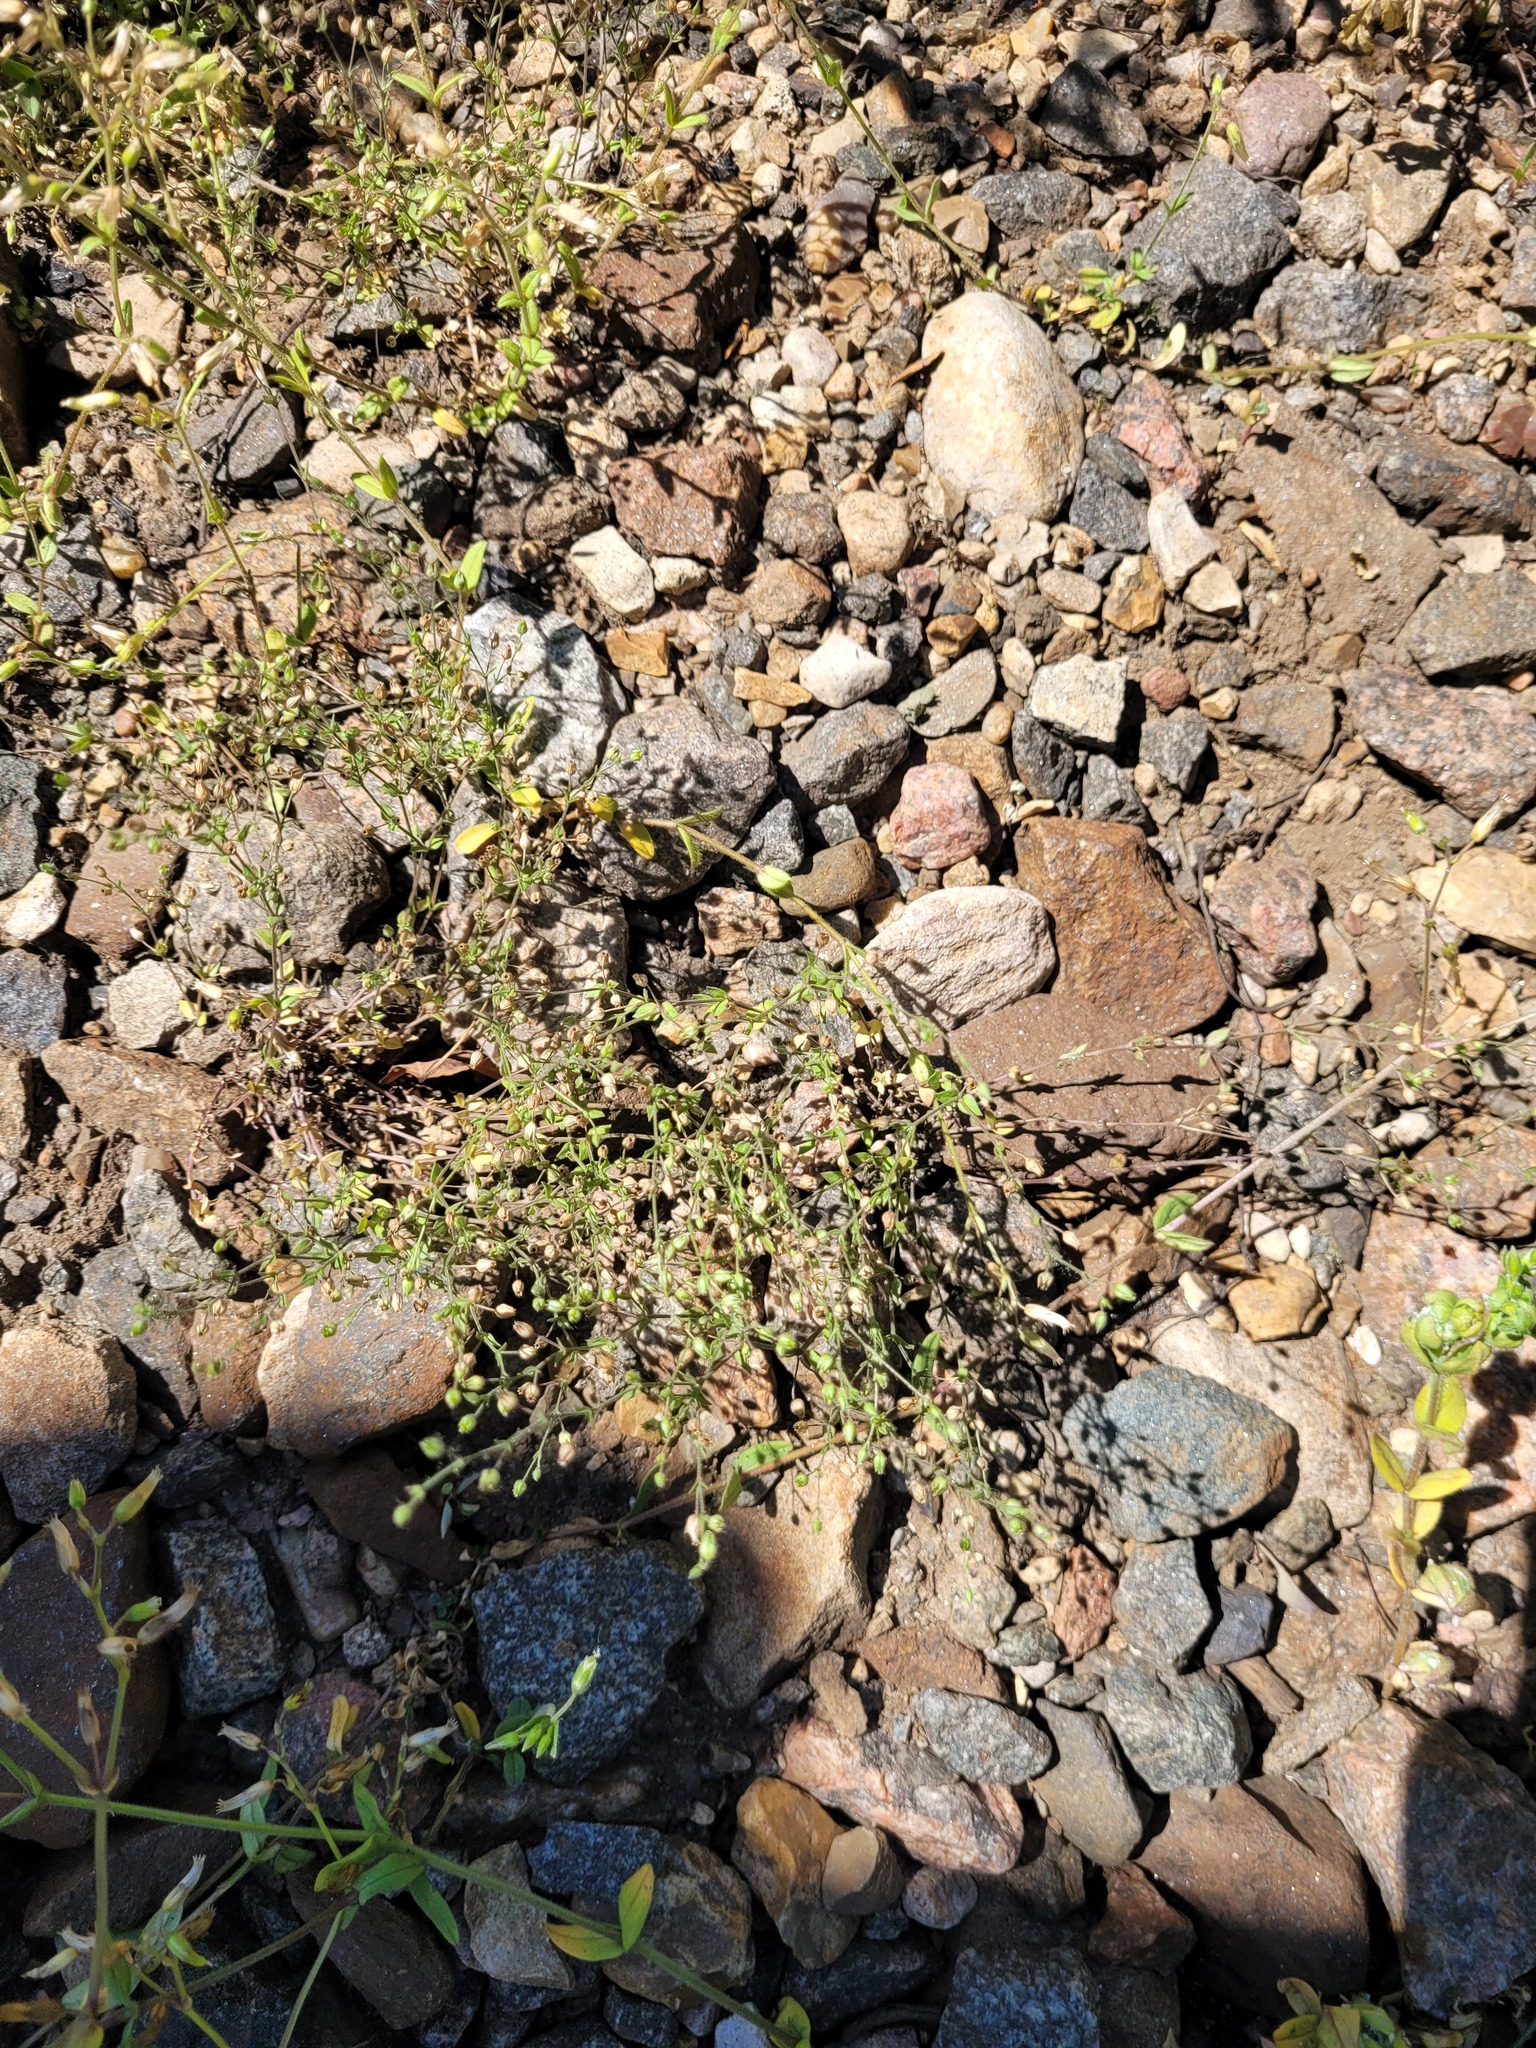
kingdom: Plantae
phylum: Tracheophyta
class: Magnoliopsida
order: Caryophyllales
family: Caryophyllaceae
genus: Arenaria
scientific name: Arenaria serpyllifolia
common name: Thyme-leaved sandwort
